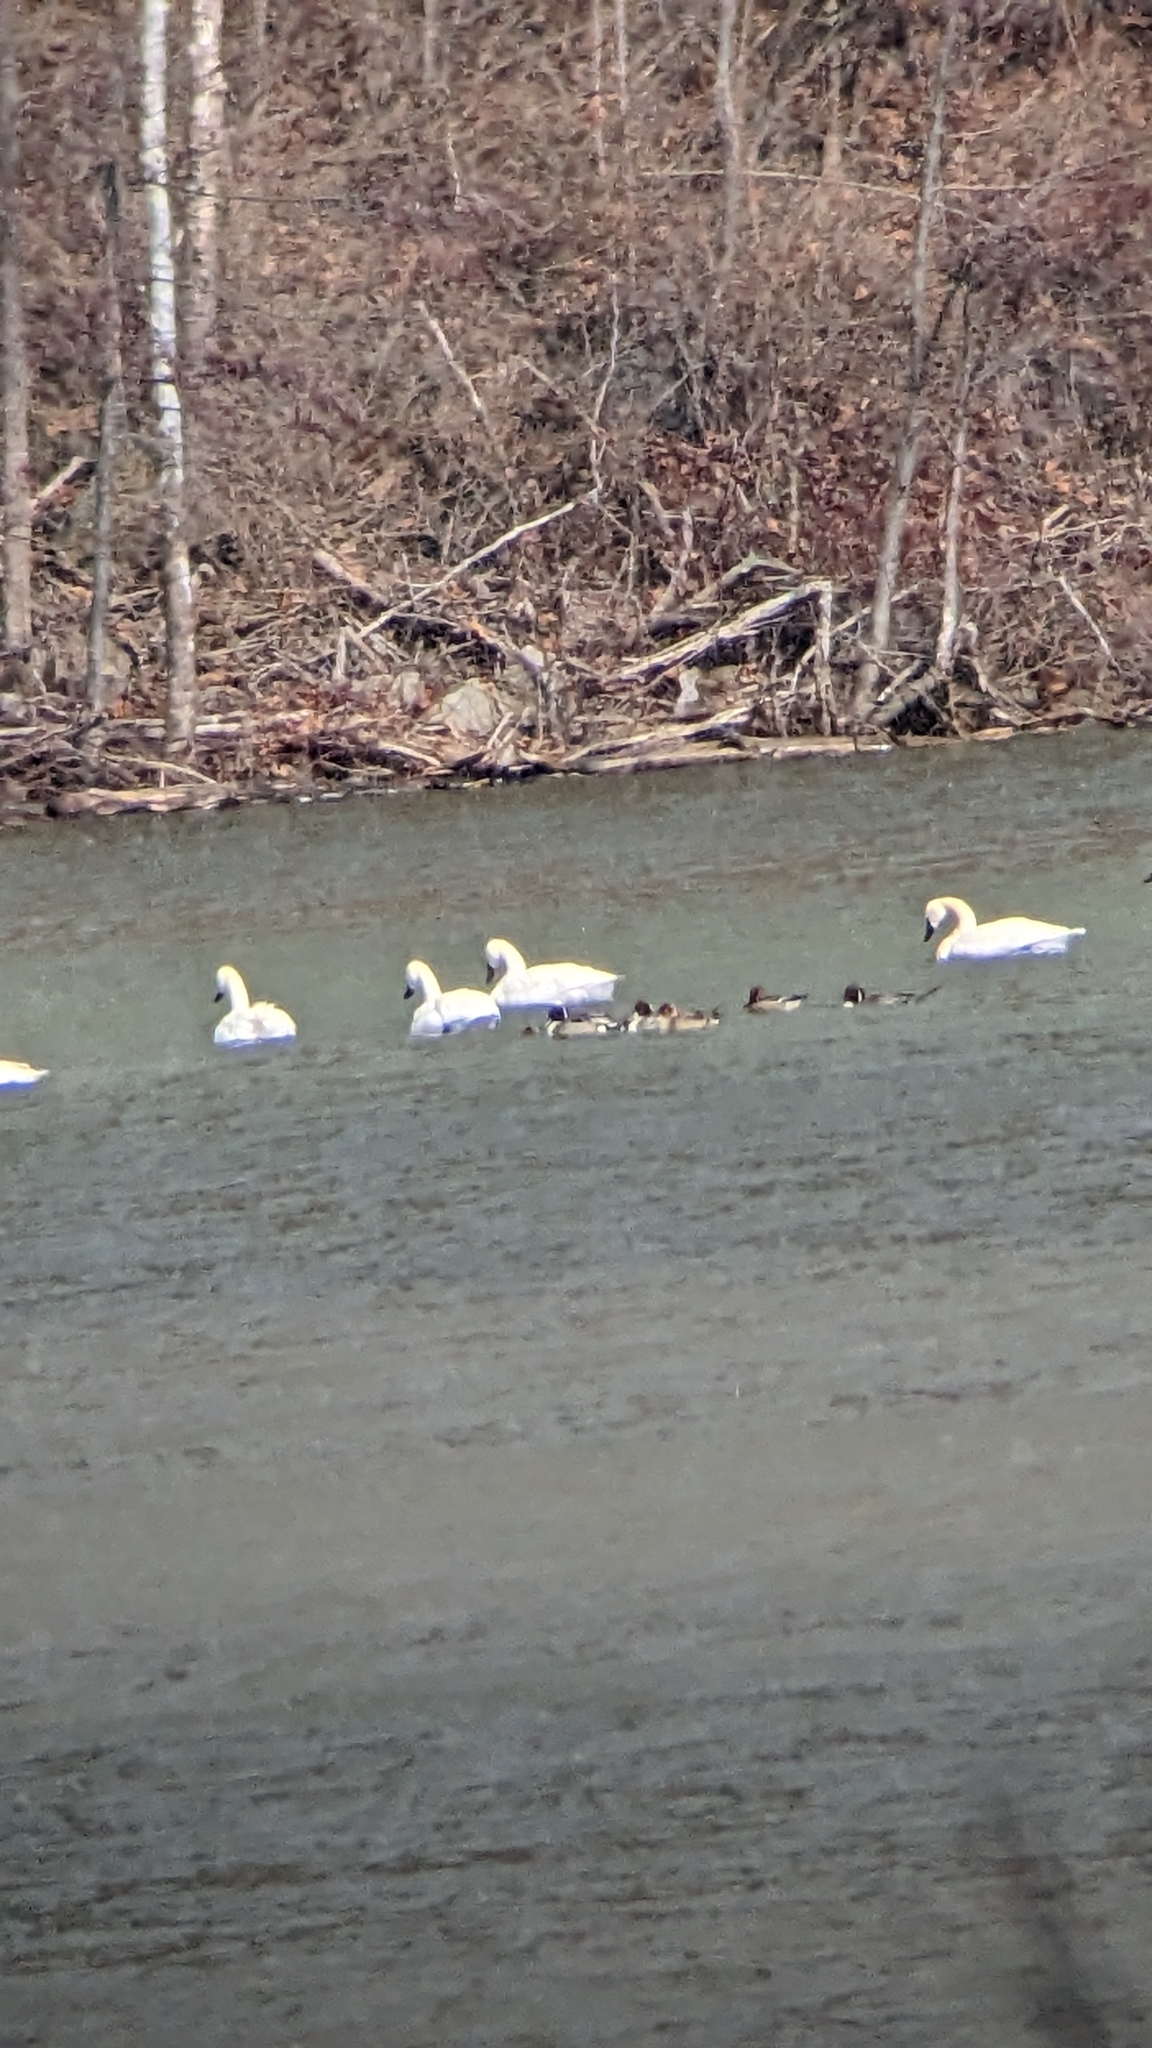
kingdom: Animalia
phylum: Chordata
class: Aves
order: Anseriformes
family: Anatidae
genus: Anas
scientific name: Anas acuta
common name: Northern pintail
